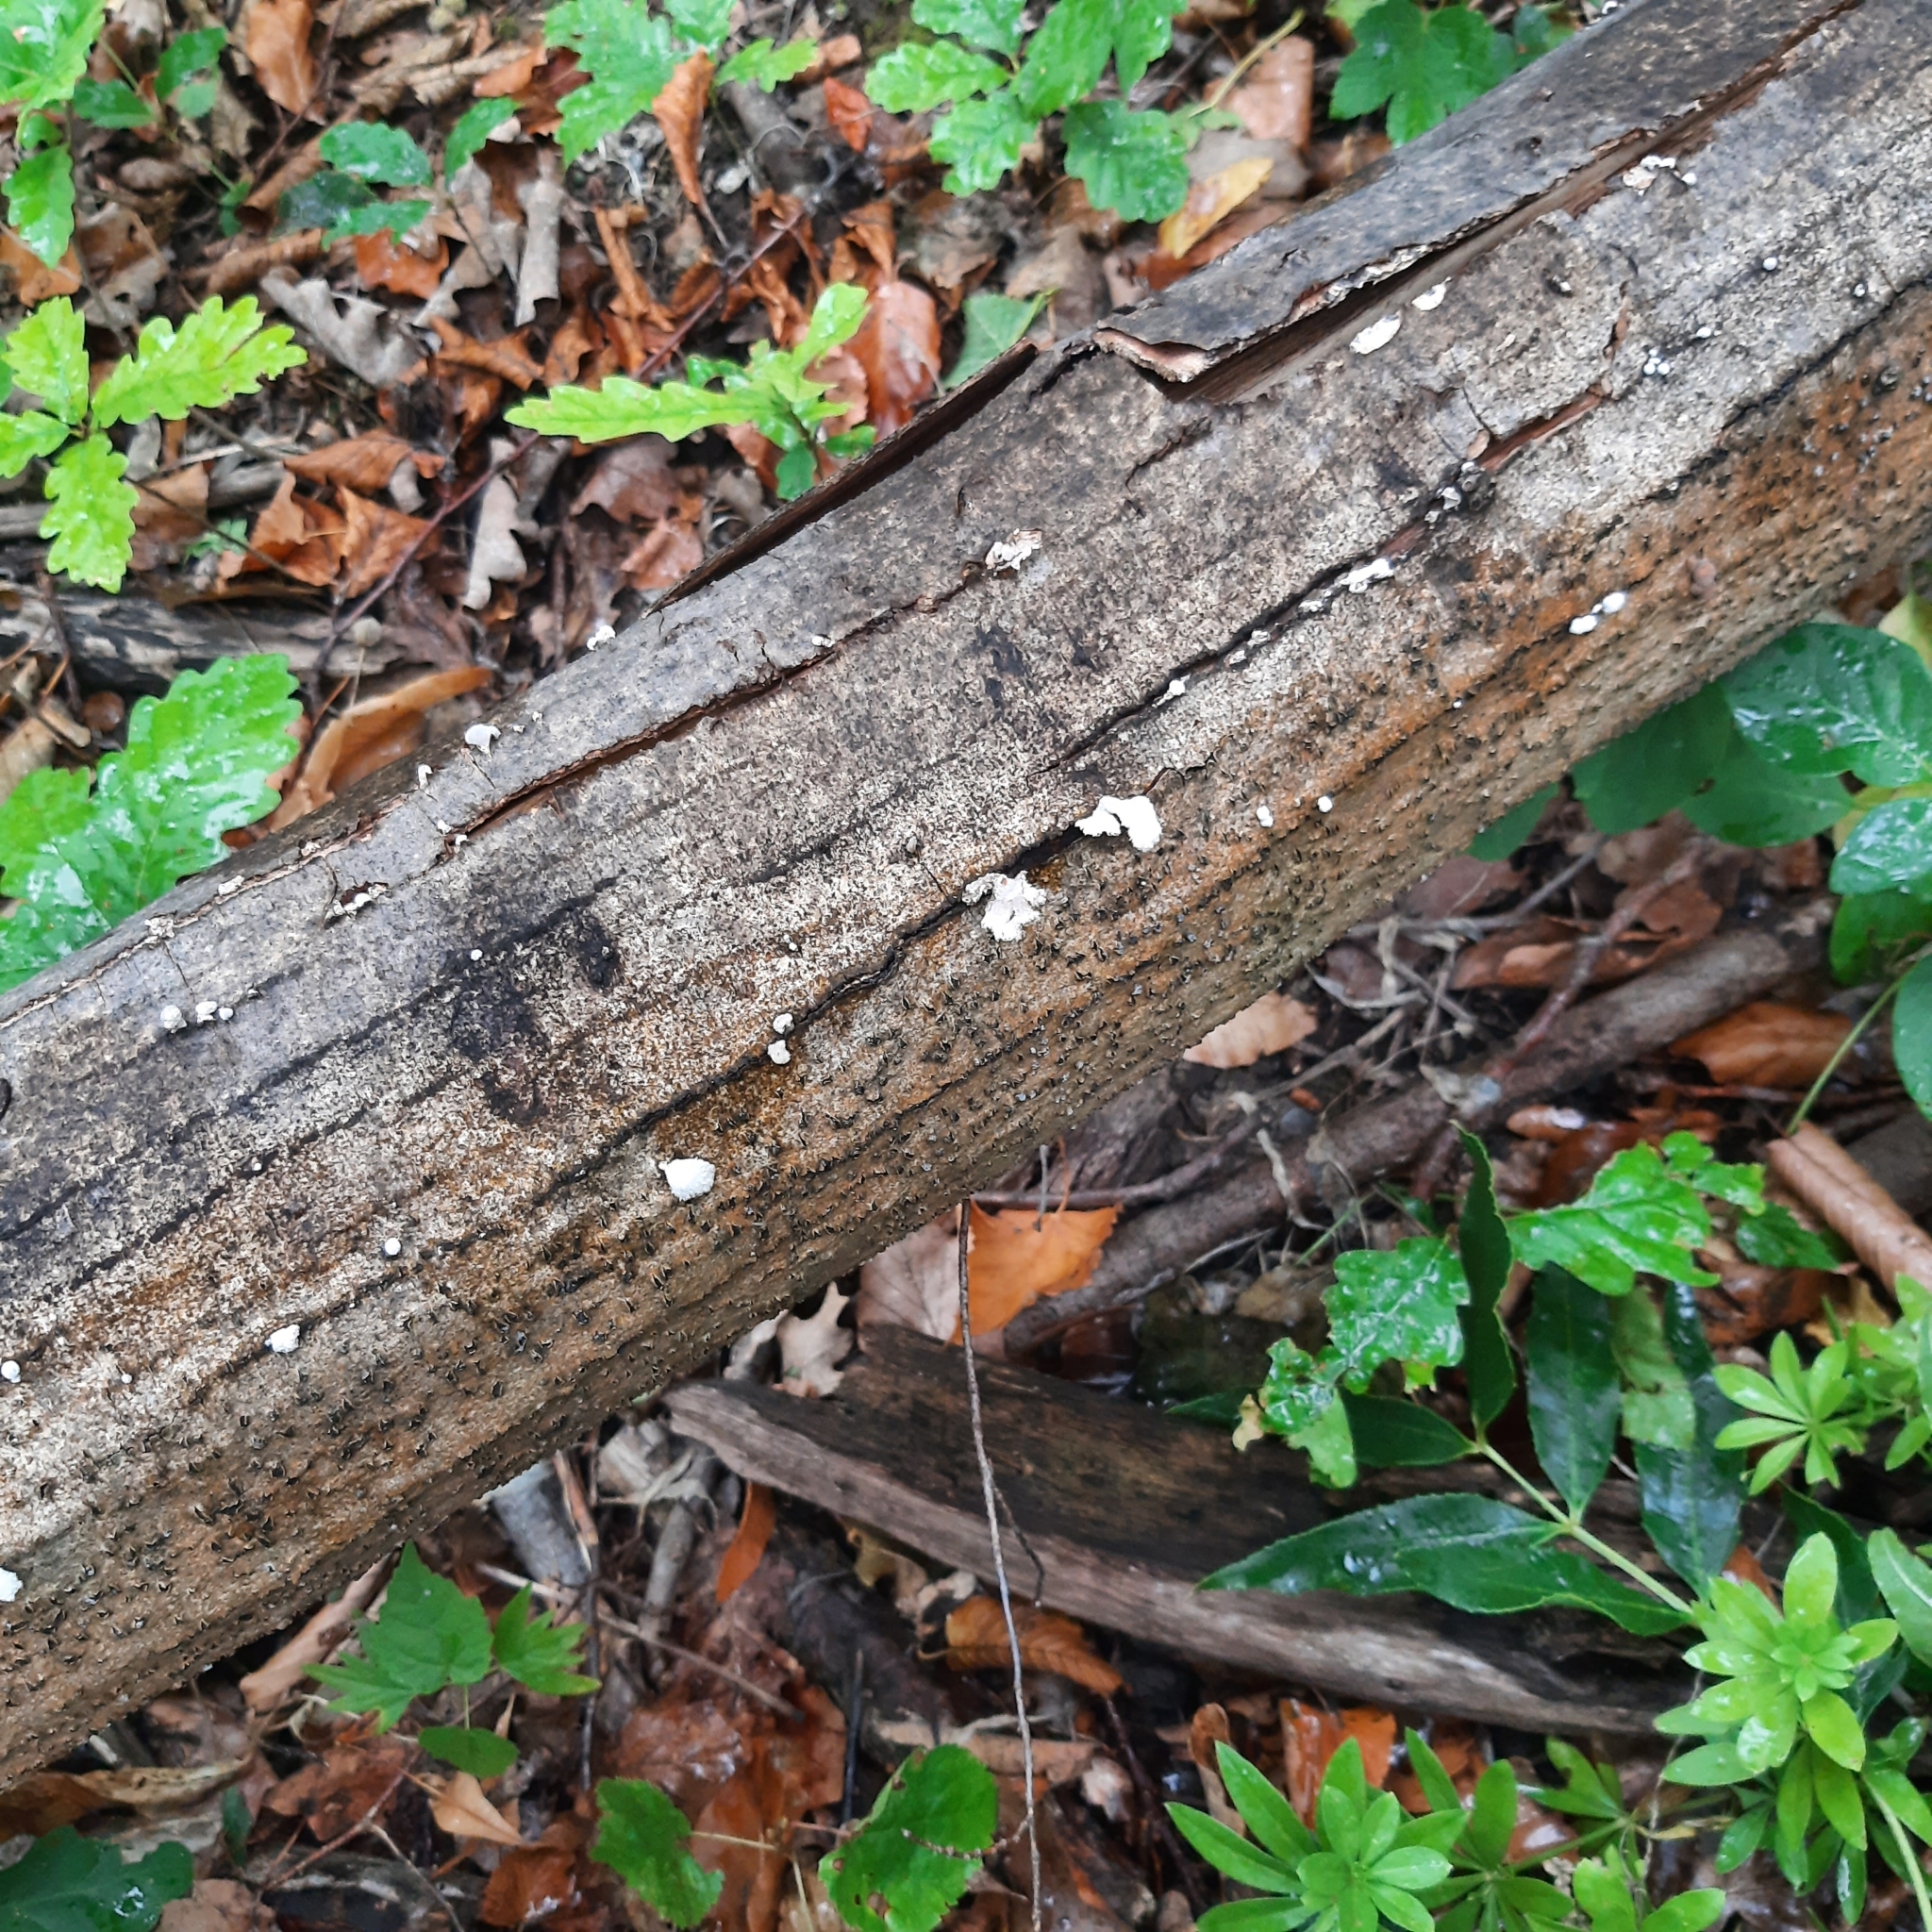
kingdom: Fungi
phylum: Basidiomycota
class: Agaricomycetes
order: Agaricales
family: Schizophyllaceae
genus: Schizophyllum
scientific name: Schizophyllum commune
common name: Common porecrust
